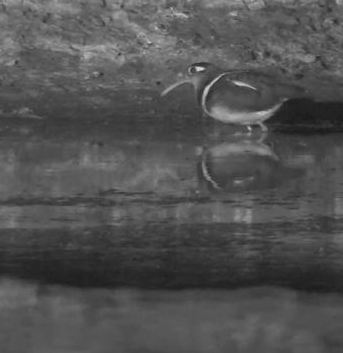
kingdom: Animalia
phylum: Chordata
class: Aves
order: Charadriiformes
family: Rostratulidae
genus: Rostratula
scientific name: Rostratula benghalensis
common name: Greater painted-snipe
